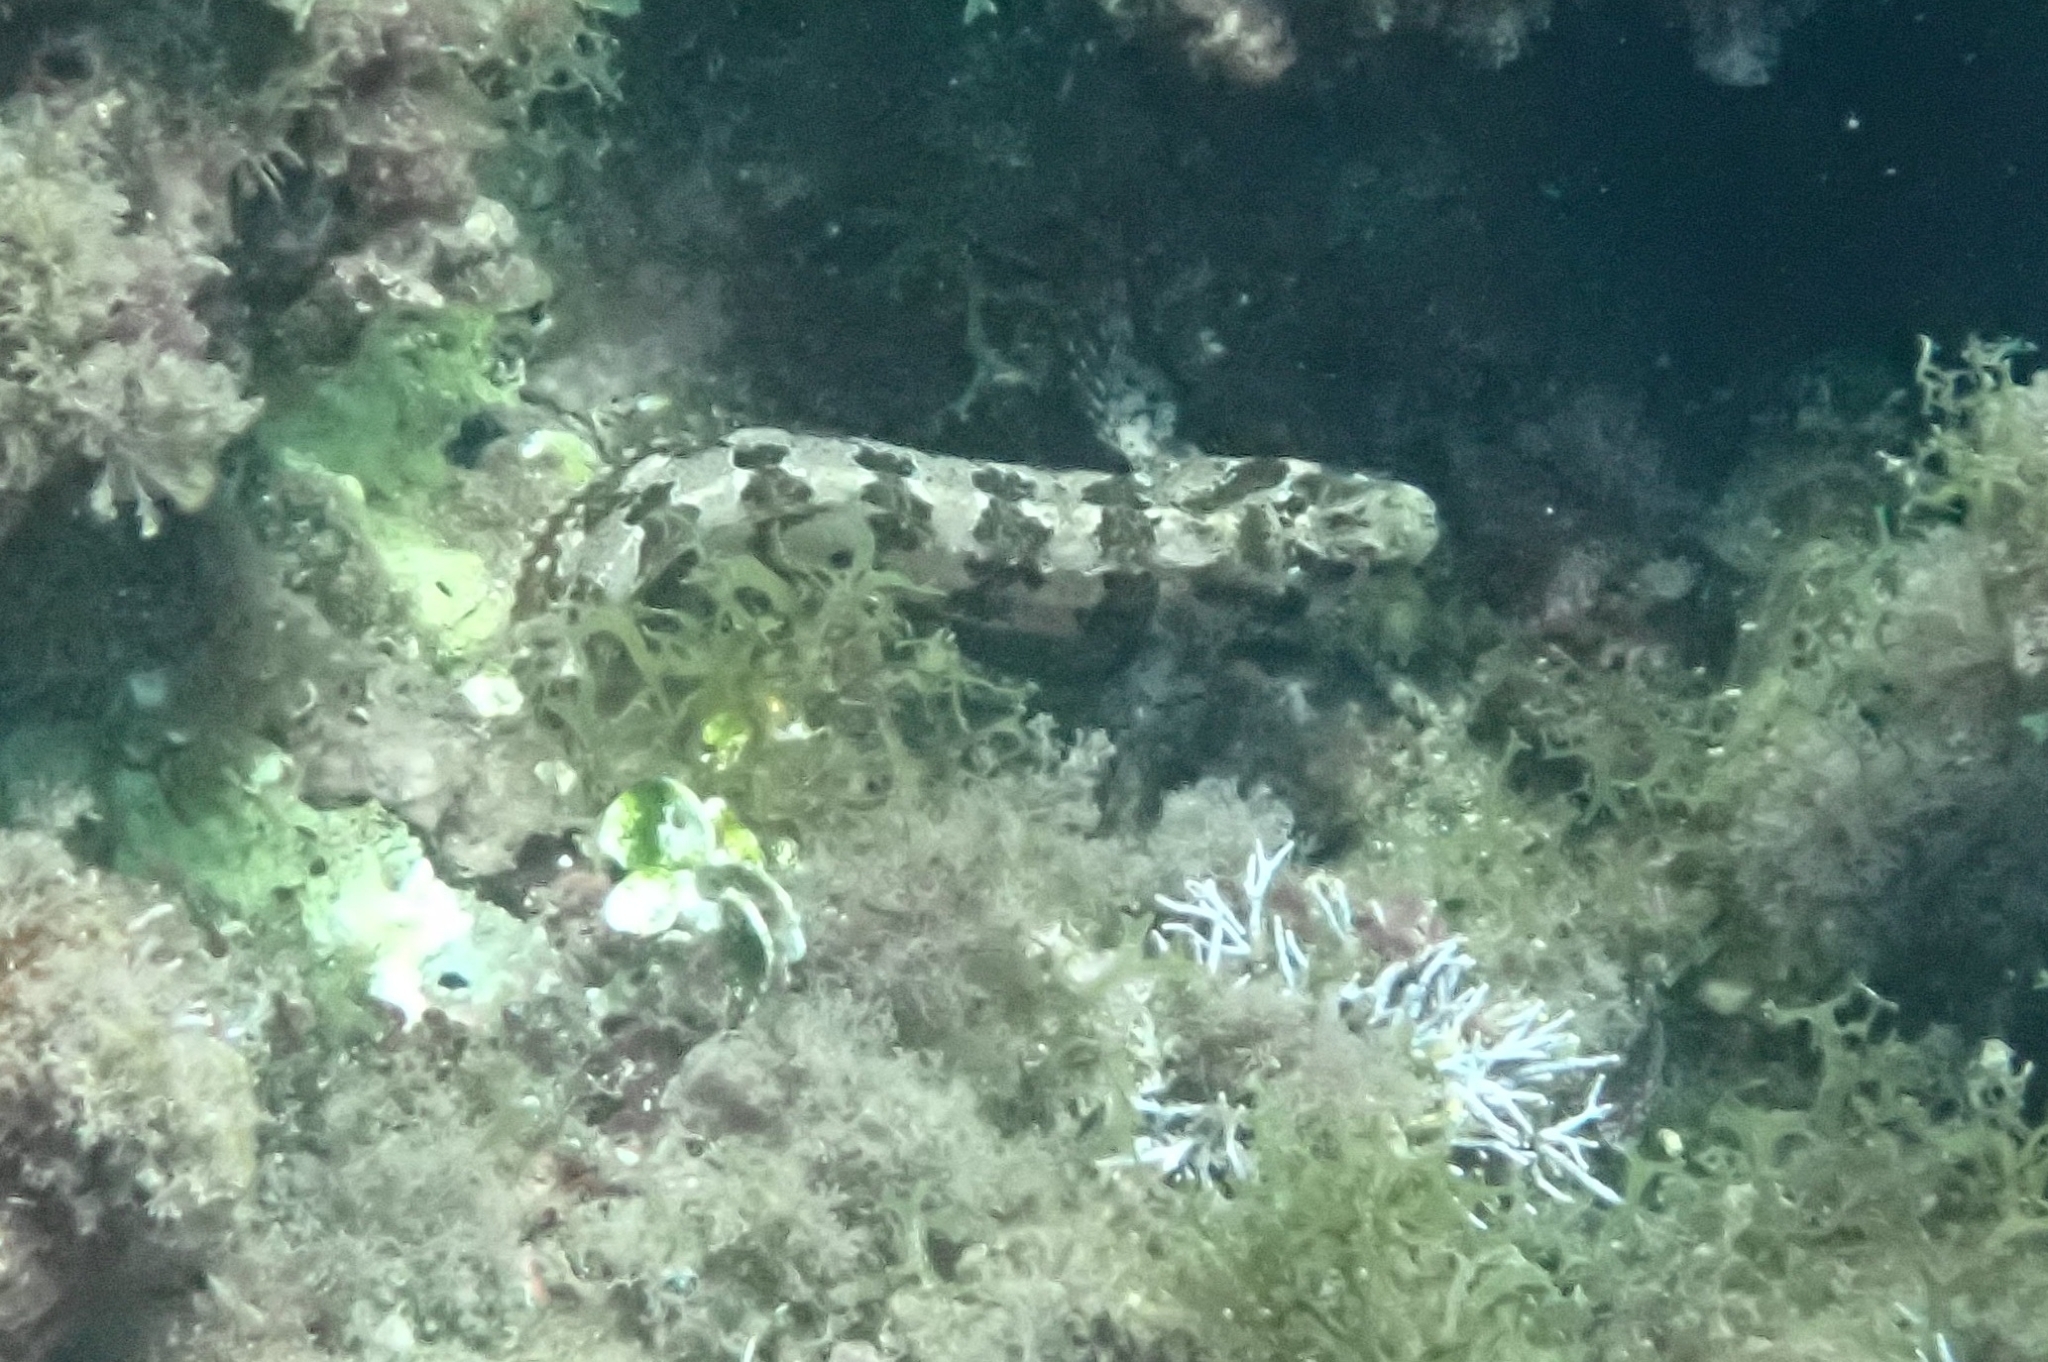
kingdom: Animalia
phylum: Chordata
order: Perciformes
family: Blenniidae
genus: Parablennius
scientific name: Parablennius gattorugine
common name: Tompot blenny
